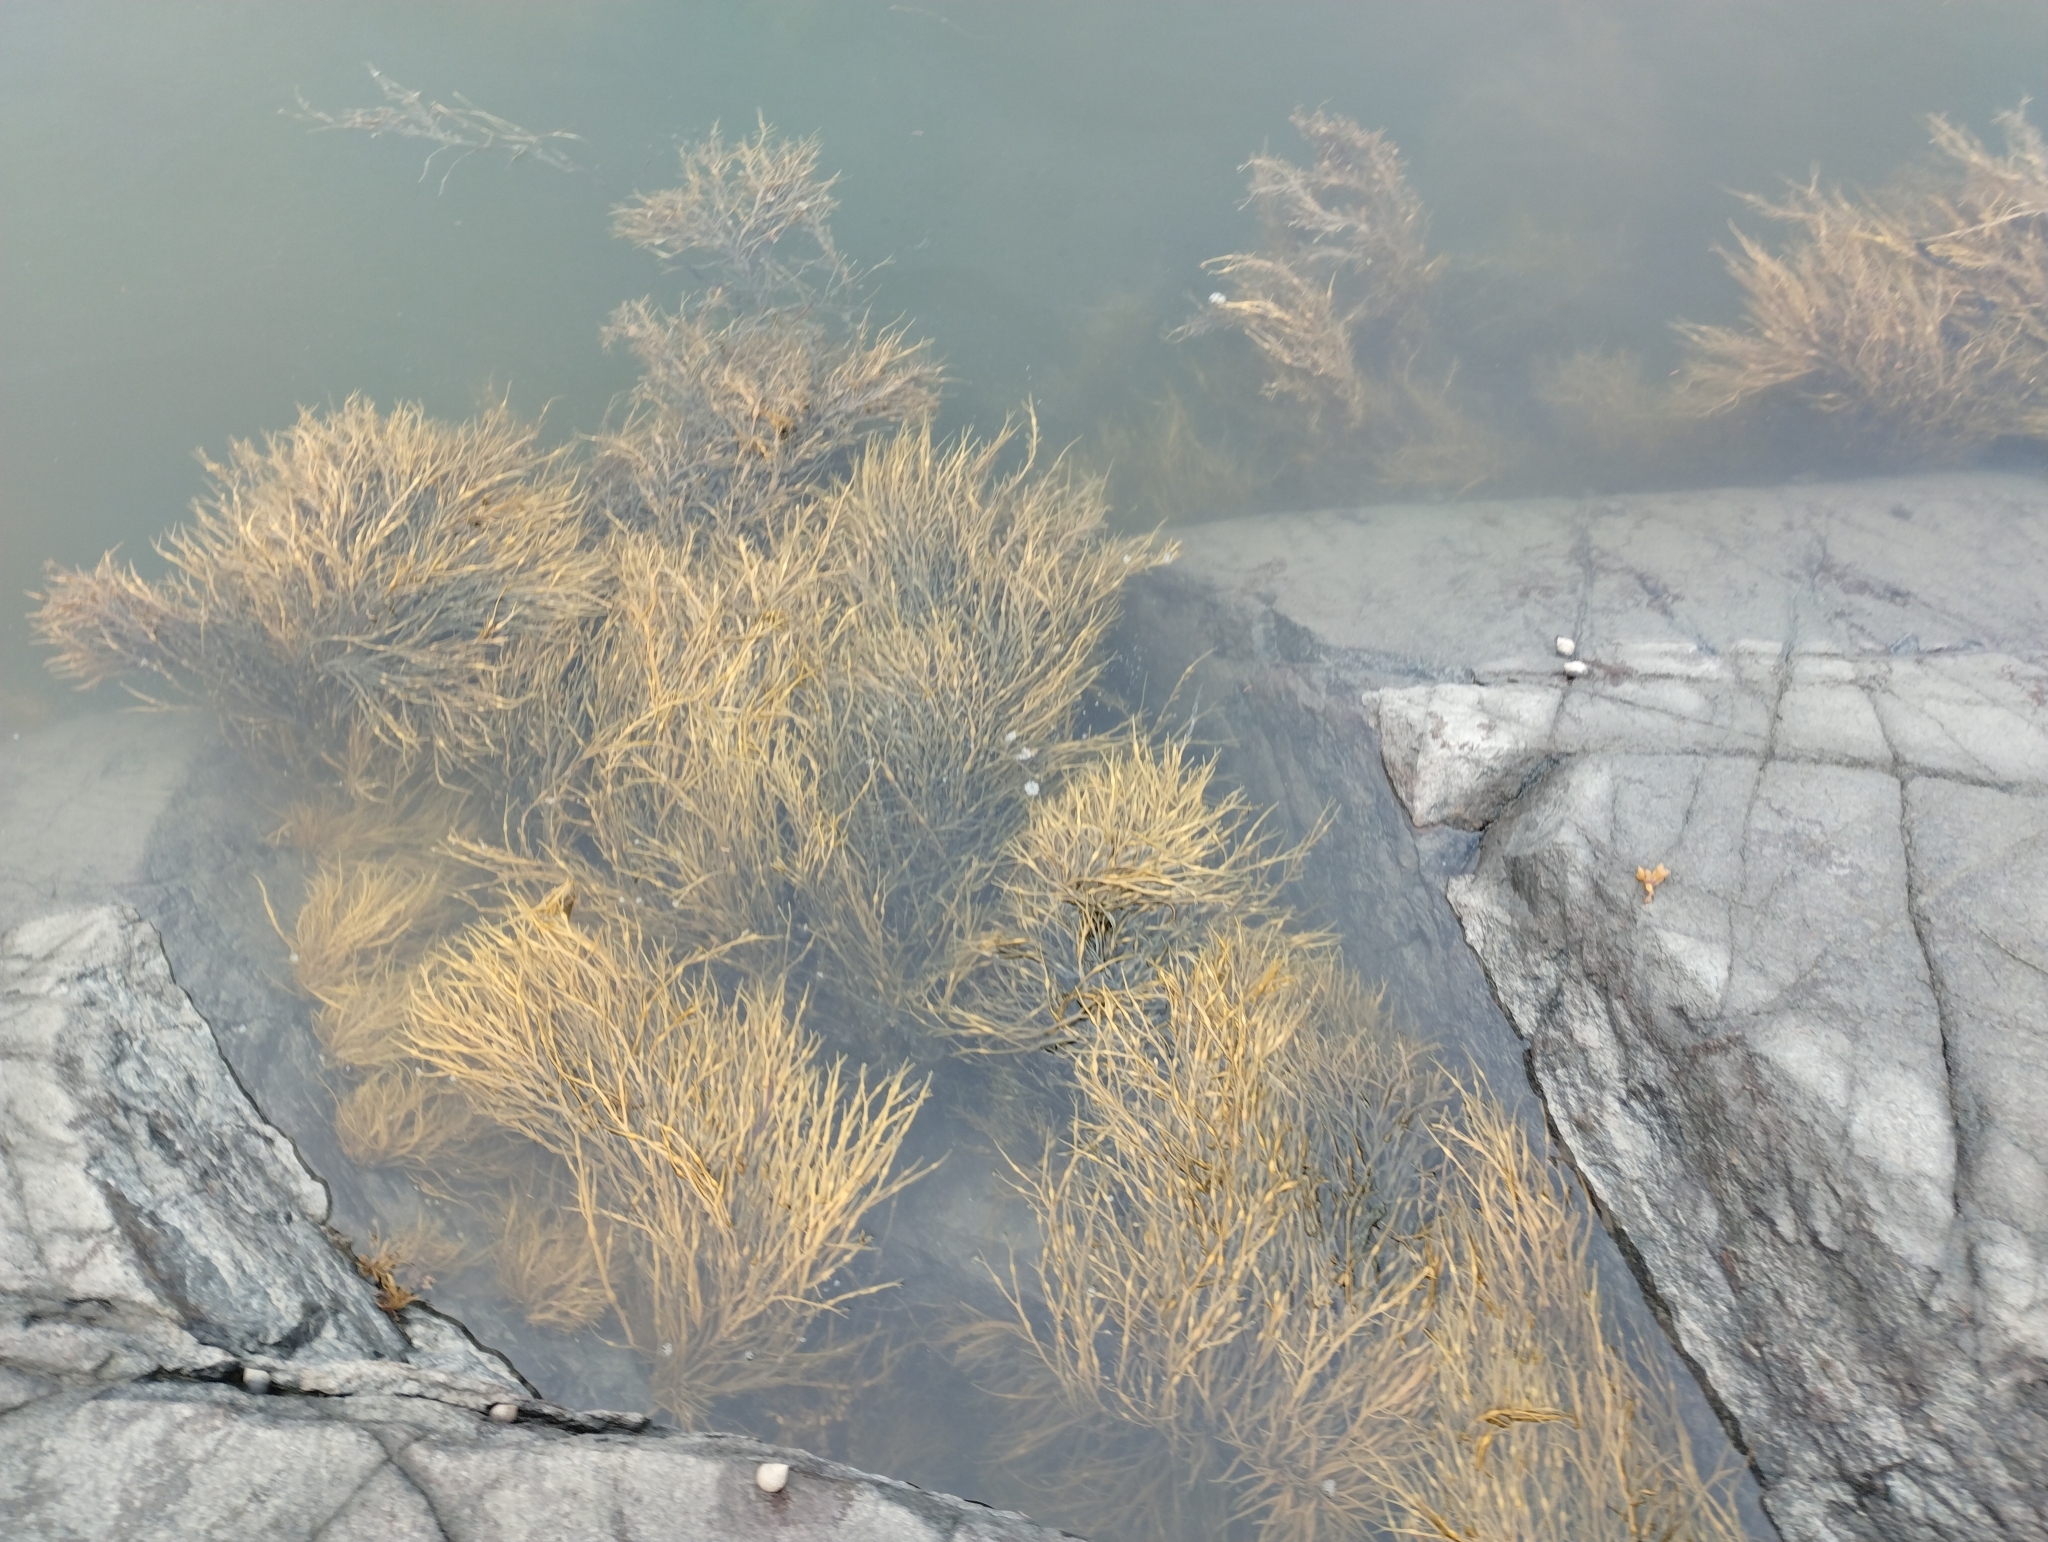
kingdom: Chromista
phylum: Ochrophyta
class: Phaeophyceae
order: Fucales
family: Fucaceae
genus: Ascophyllum
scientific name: Ascophyllum nodosum
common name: Knotted wrack
